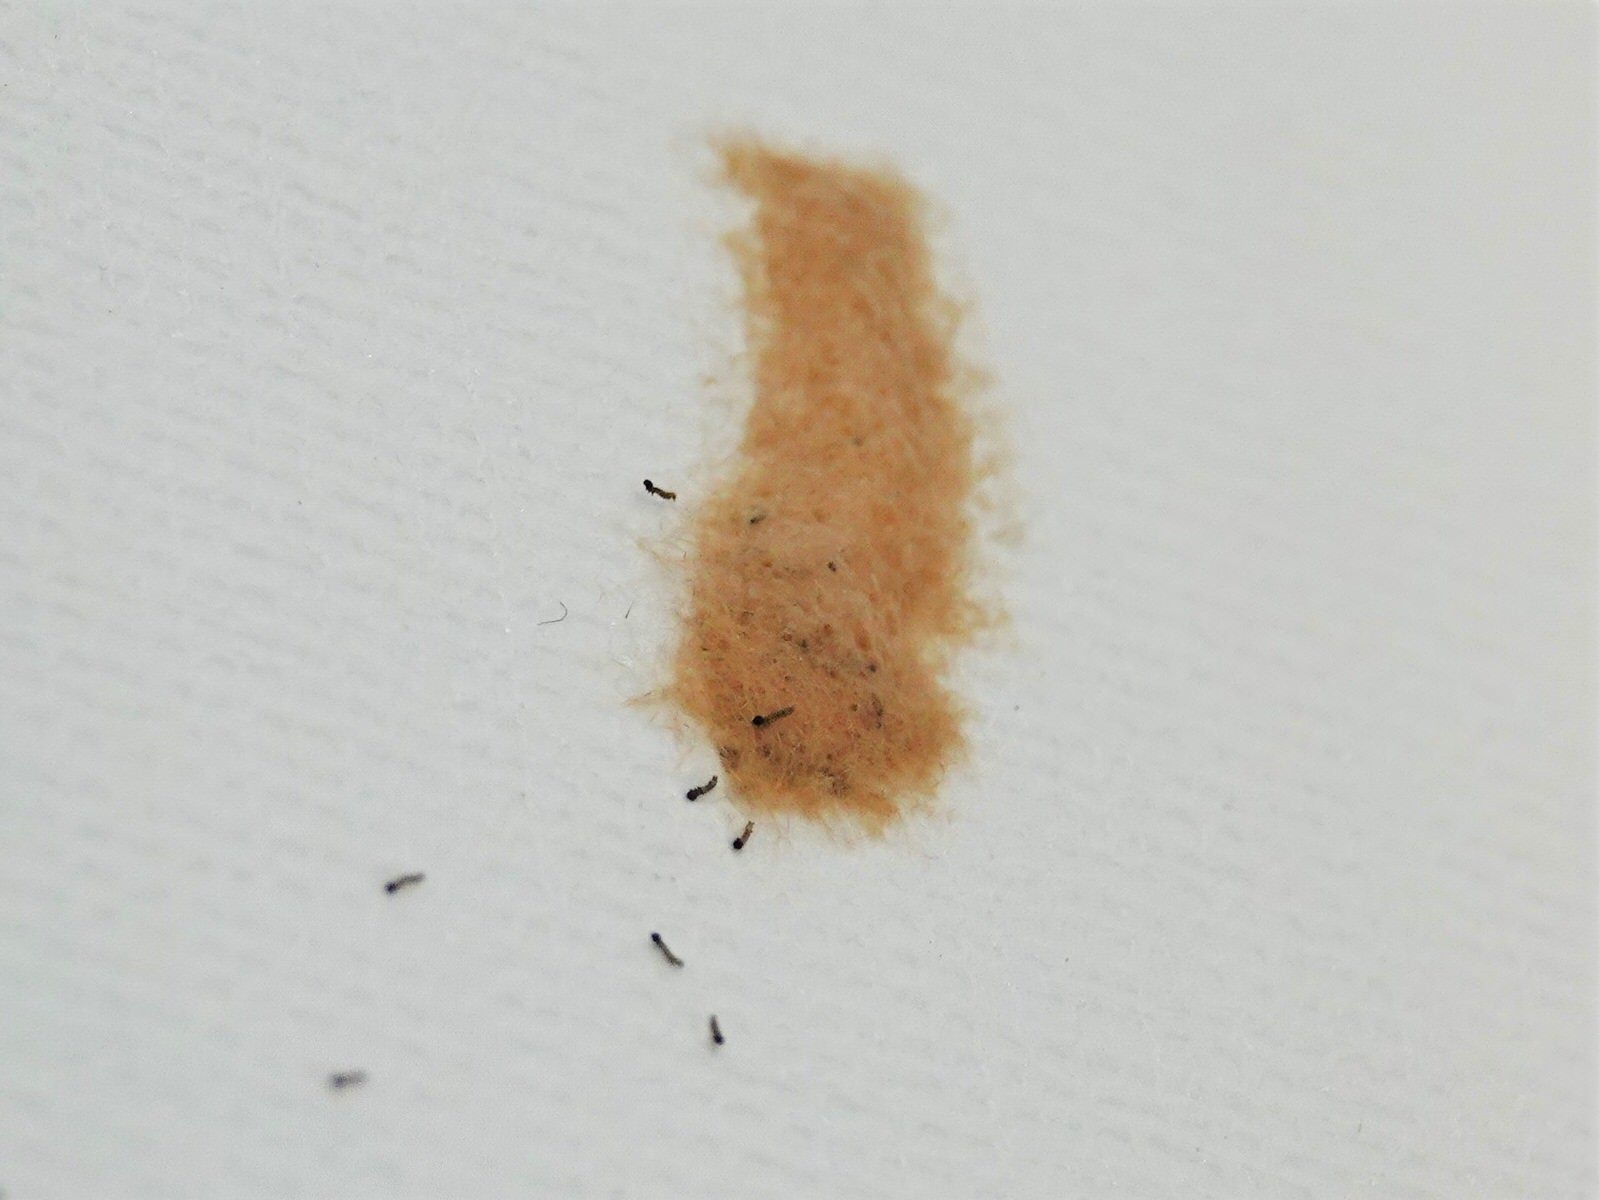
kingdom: Animalia
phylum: Arthropoda
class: Insecta
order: Lepidoptera
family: Noctuidae
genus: Spodoptera
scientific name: Spodoptera litura
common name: Asian cotton leafworm
